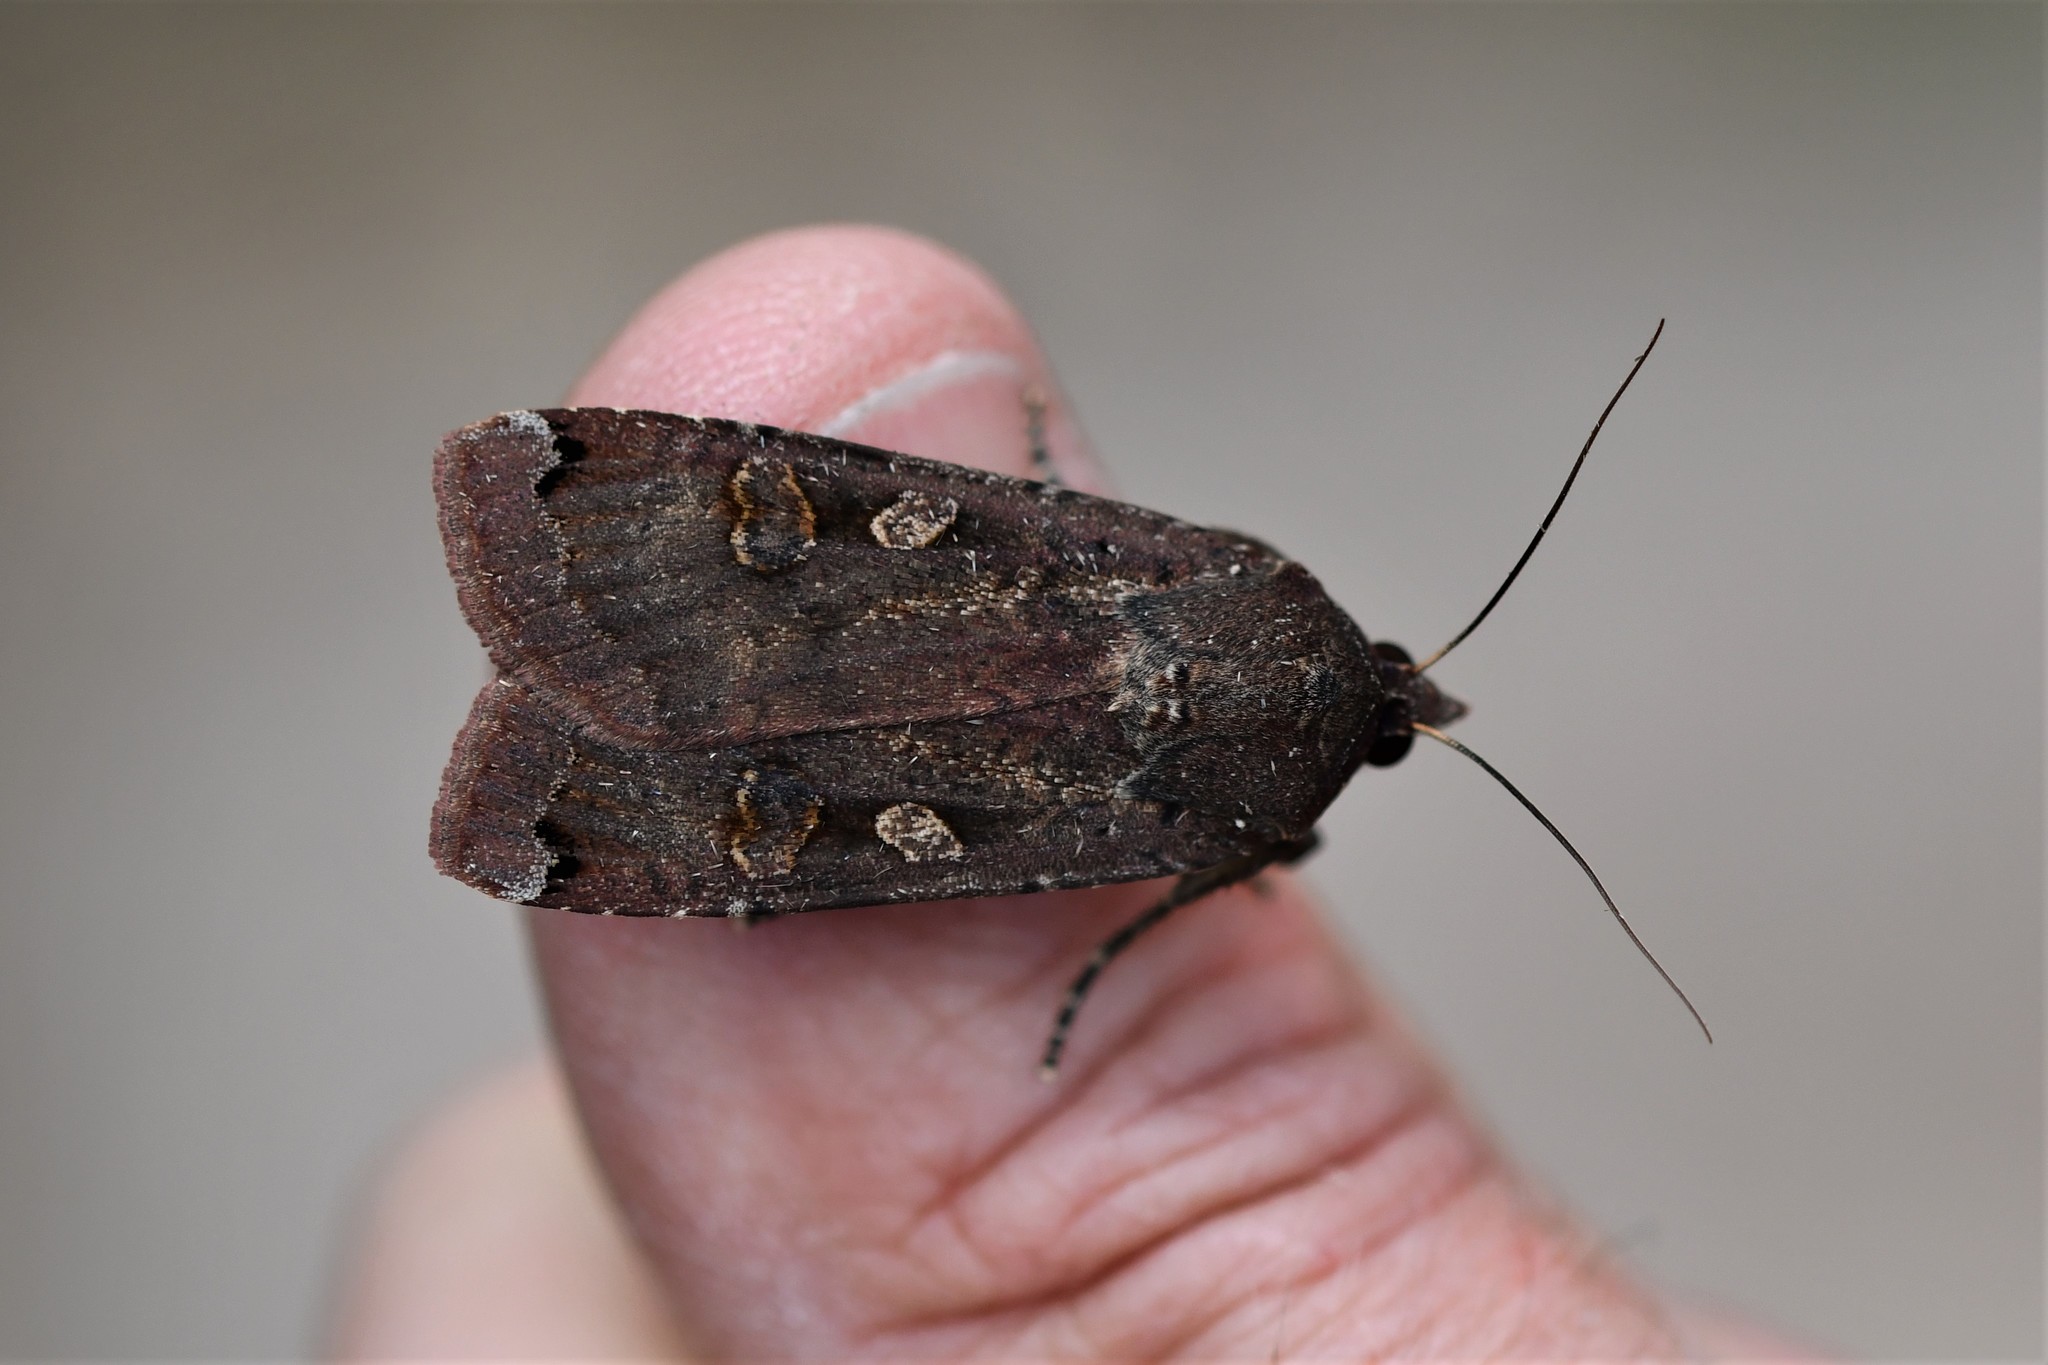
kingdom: Animalia
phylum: Arthropoda
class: Insecta
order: Lepidoptera
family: Noctuidae
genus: Noctua
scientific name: Noctua pronuba
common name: Large yellow underwing
